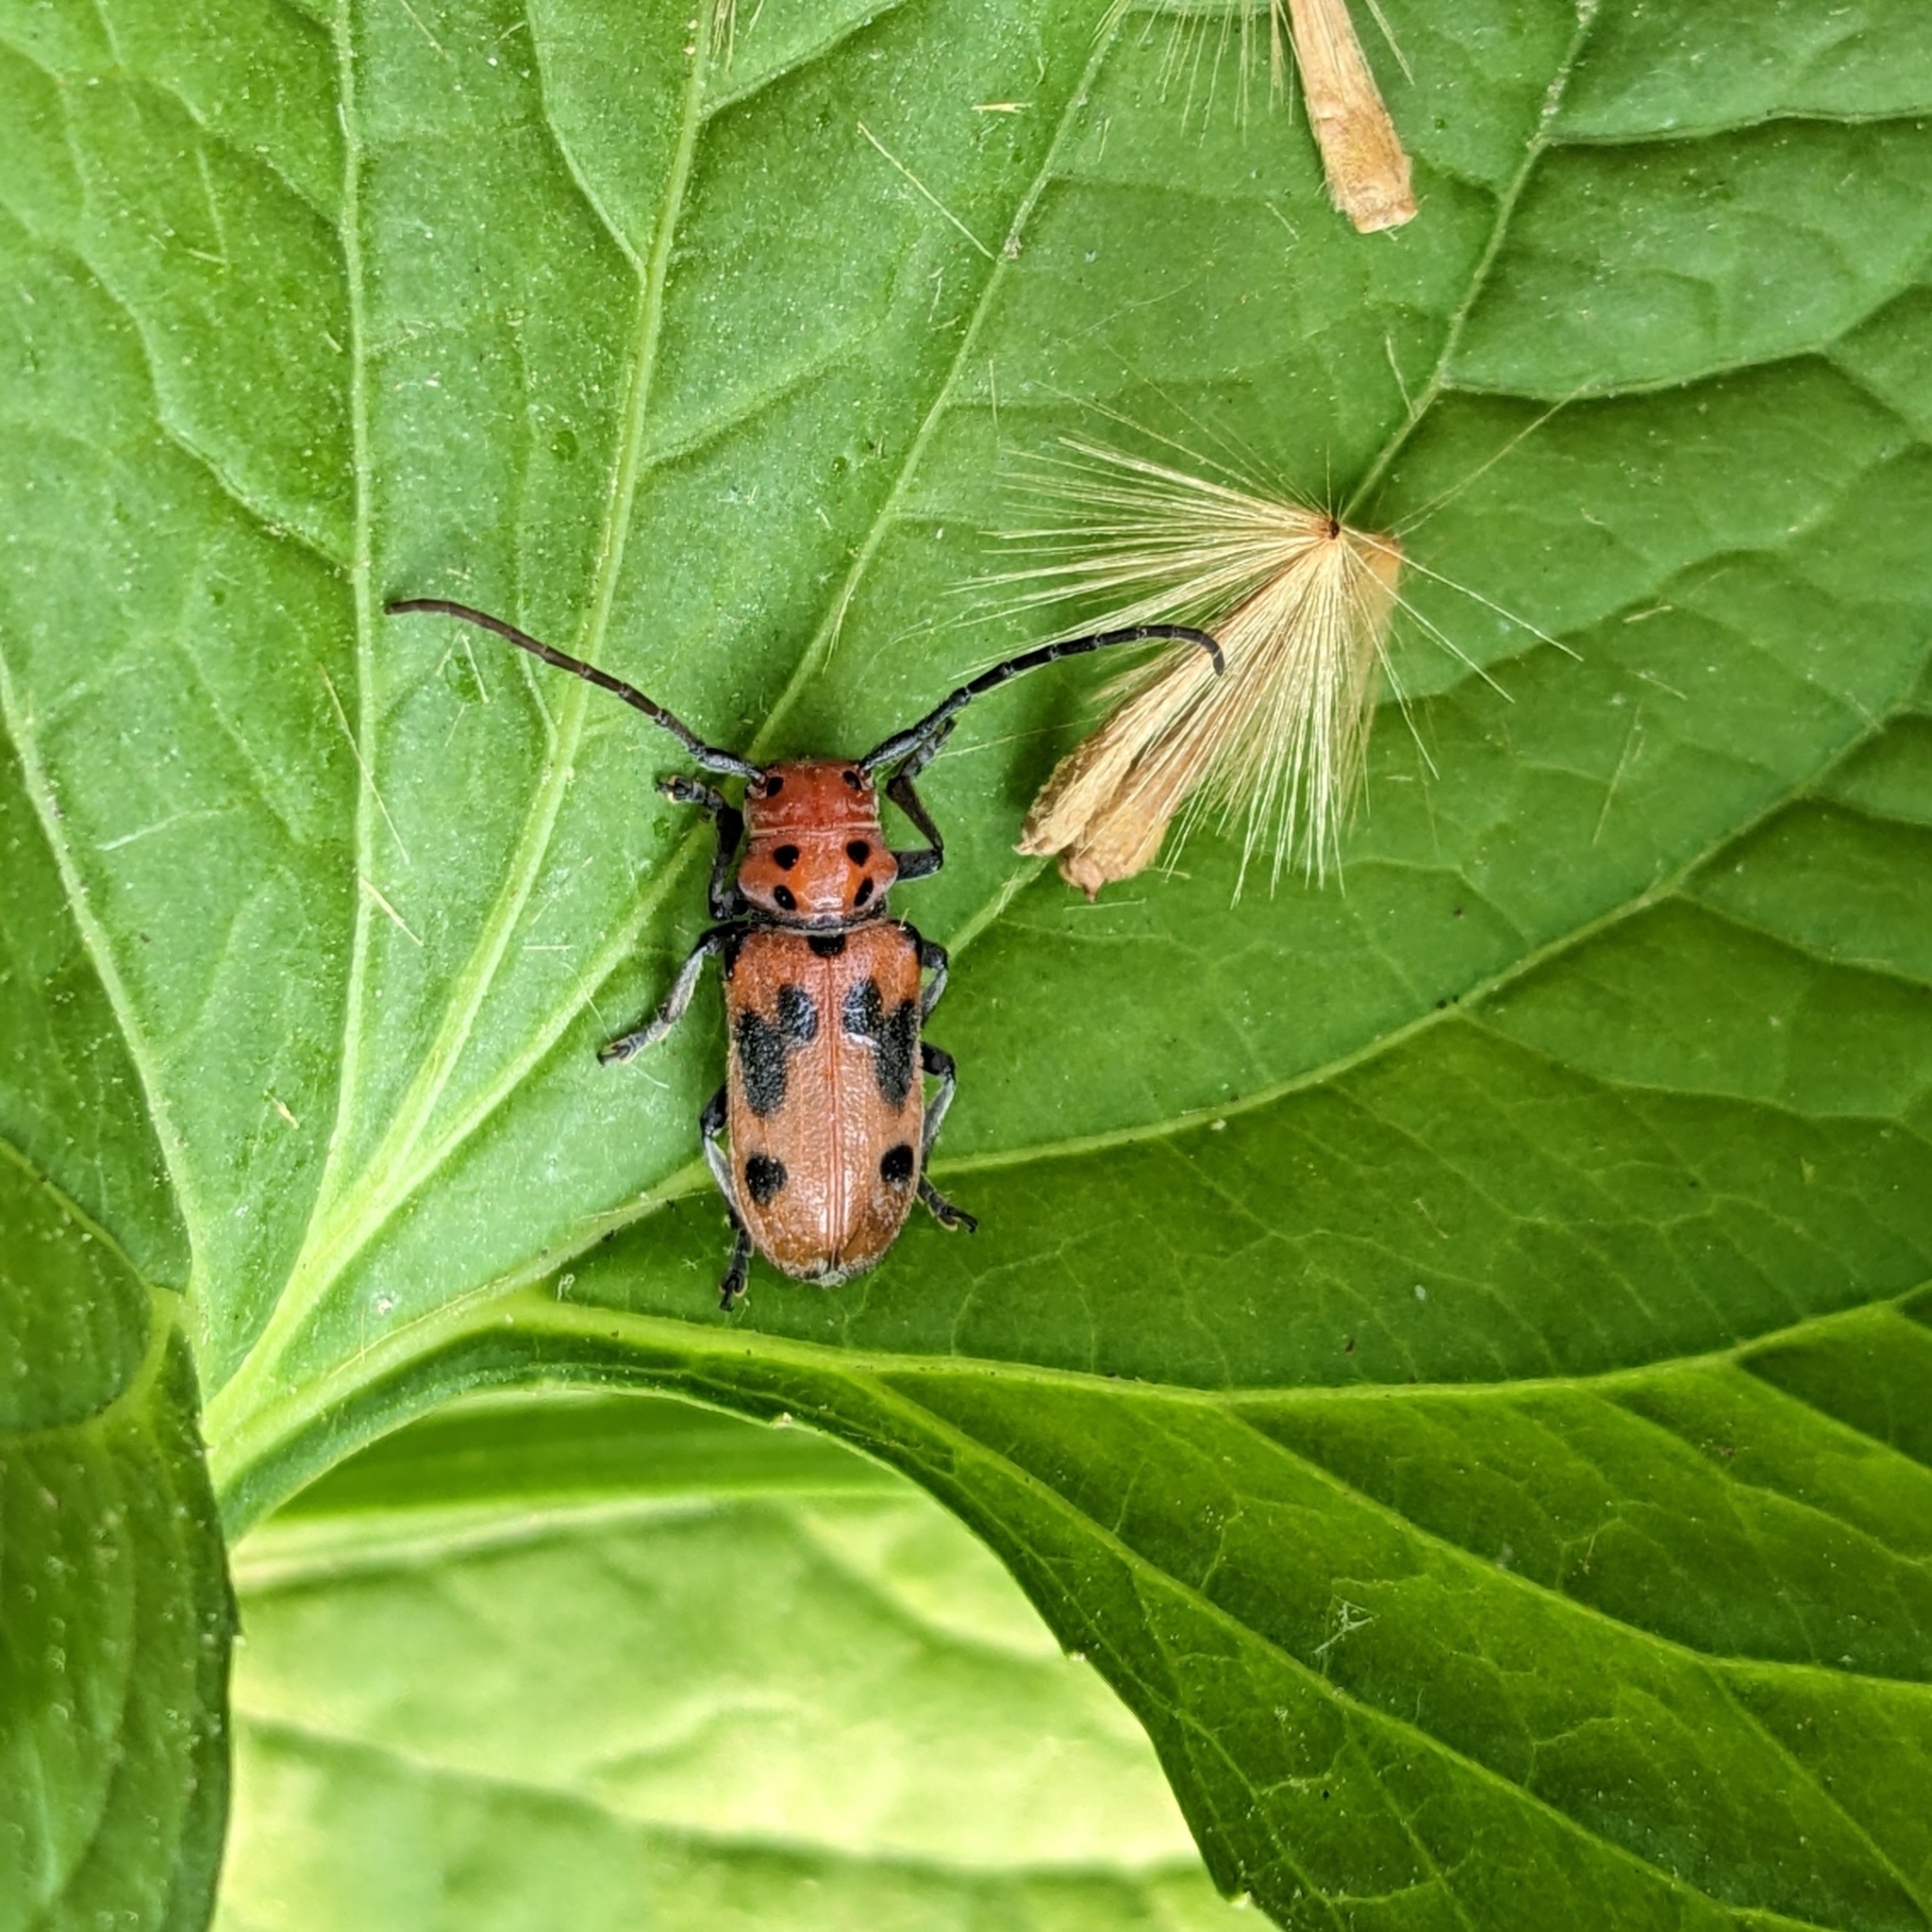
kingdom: Animalia
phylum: Arthropoda
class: Insecta
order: Coleoptera
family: Cerambycidae
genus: Tetraopes
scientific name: Tetraopes tetrophthalmus
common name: Red milkweed beetle
